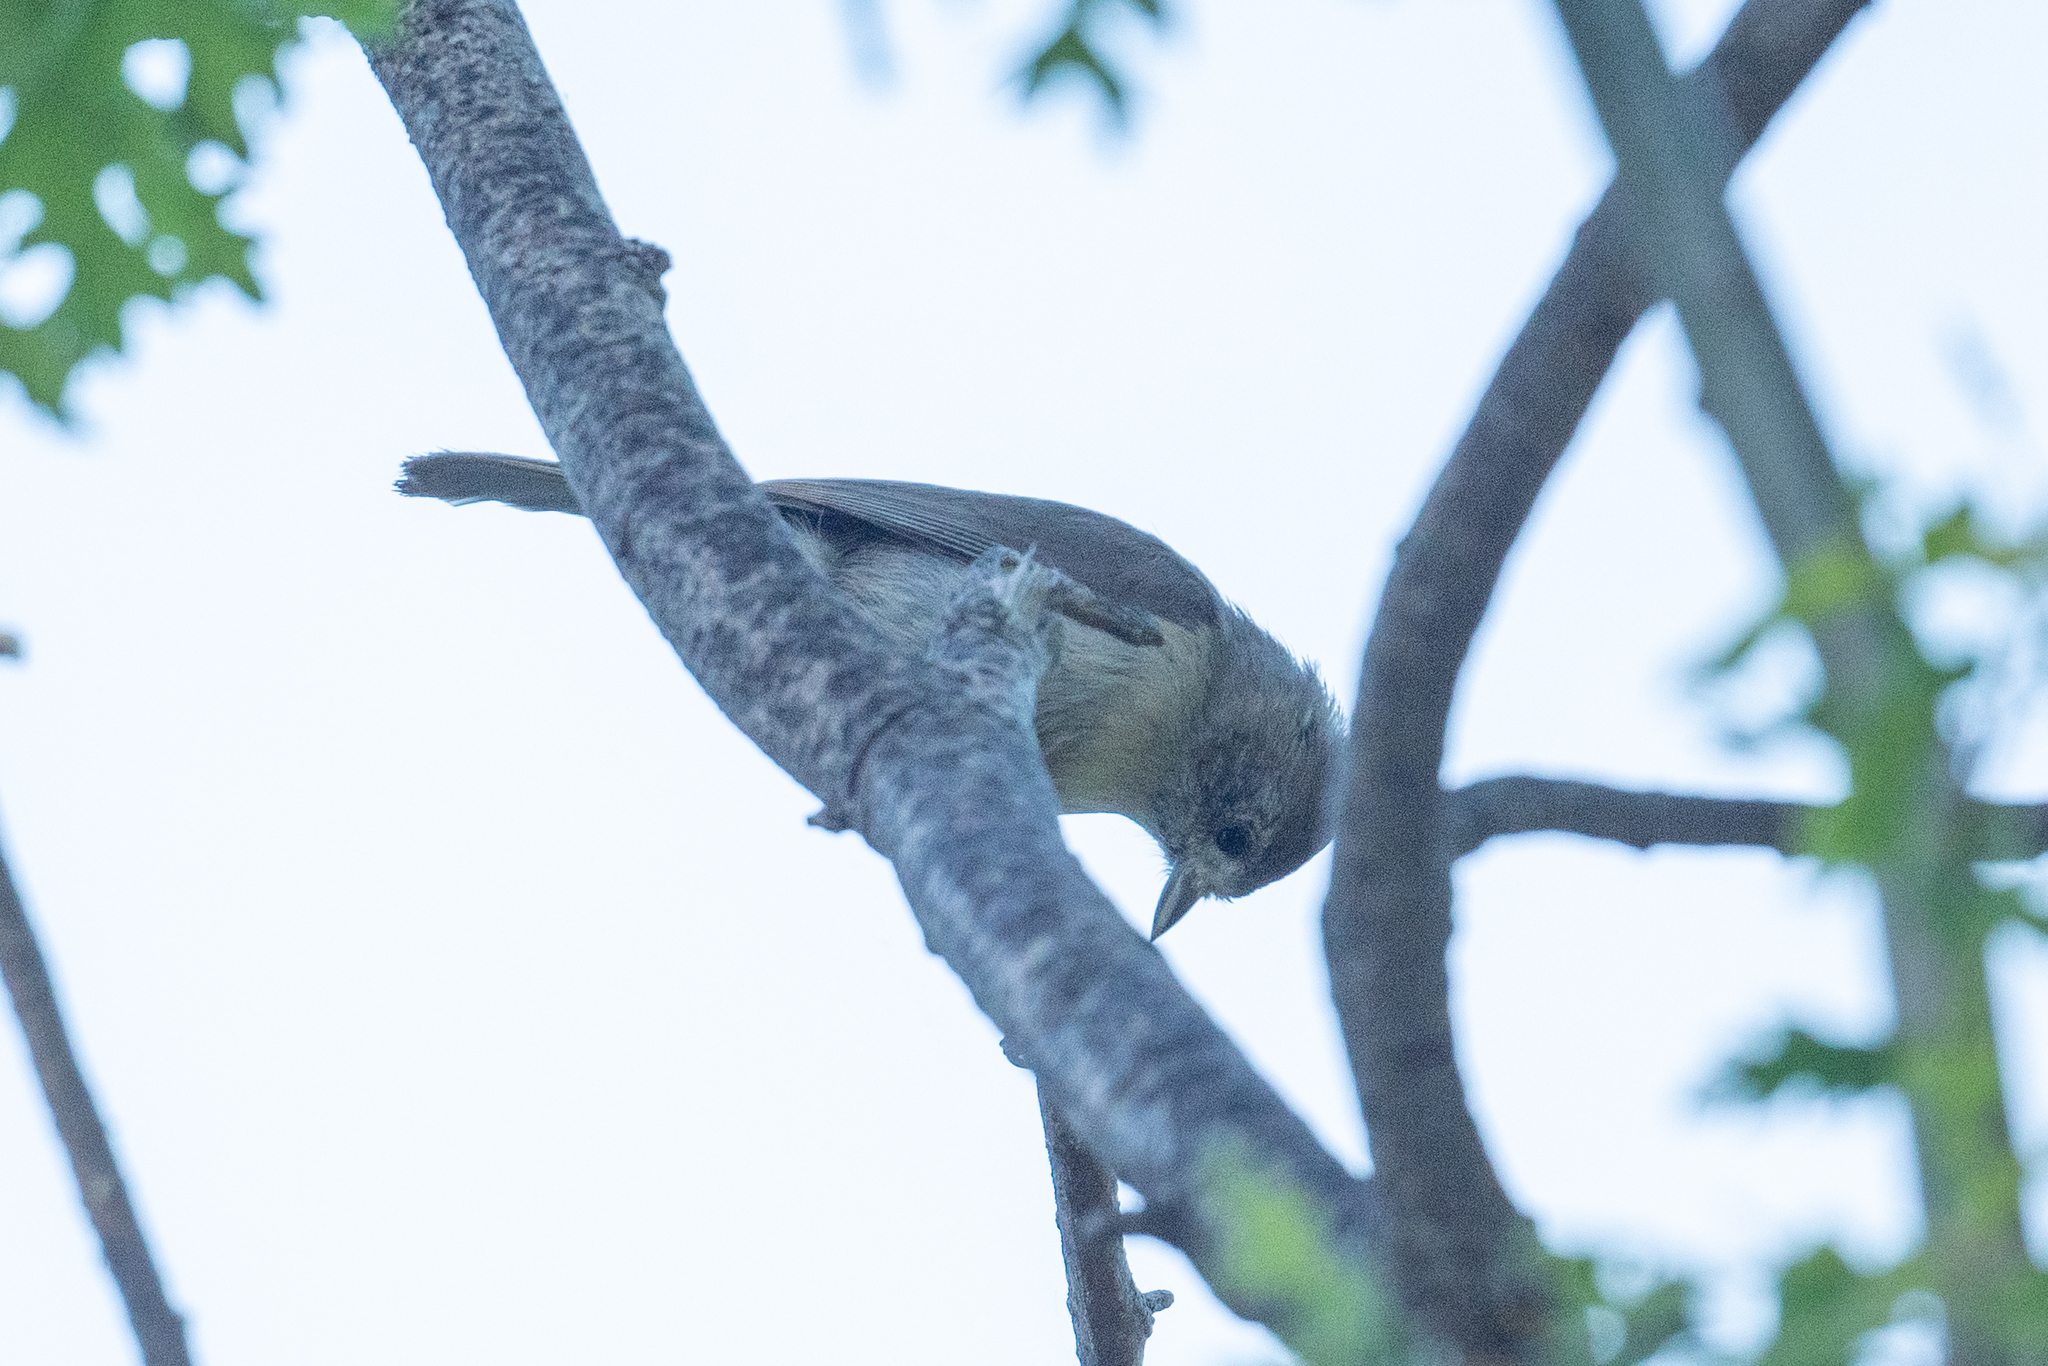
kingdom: Animalia
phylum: Chordata
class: Aves
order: Passeriformes
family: Paridae
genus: Baeolophus
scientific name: Baeolophus inornatus
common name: Oak titmouse
